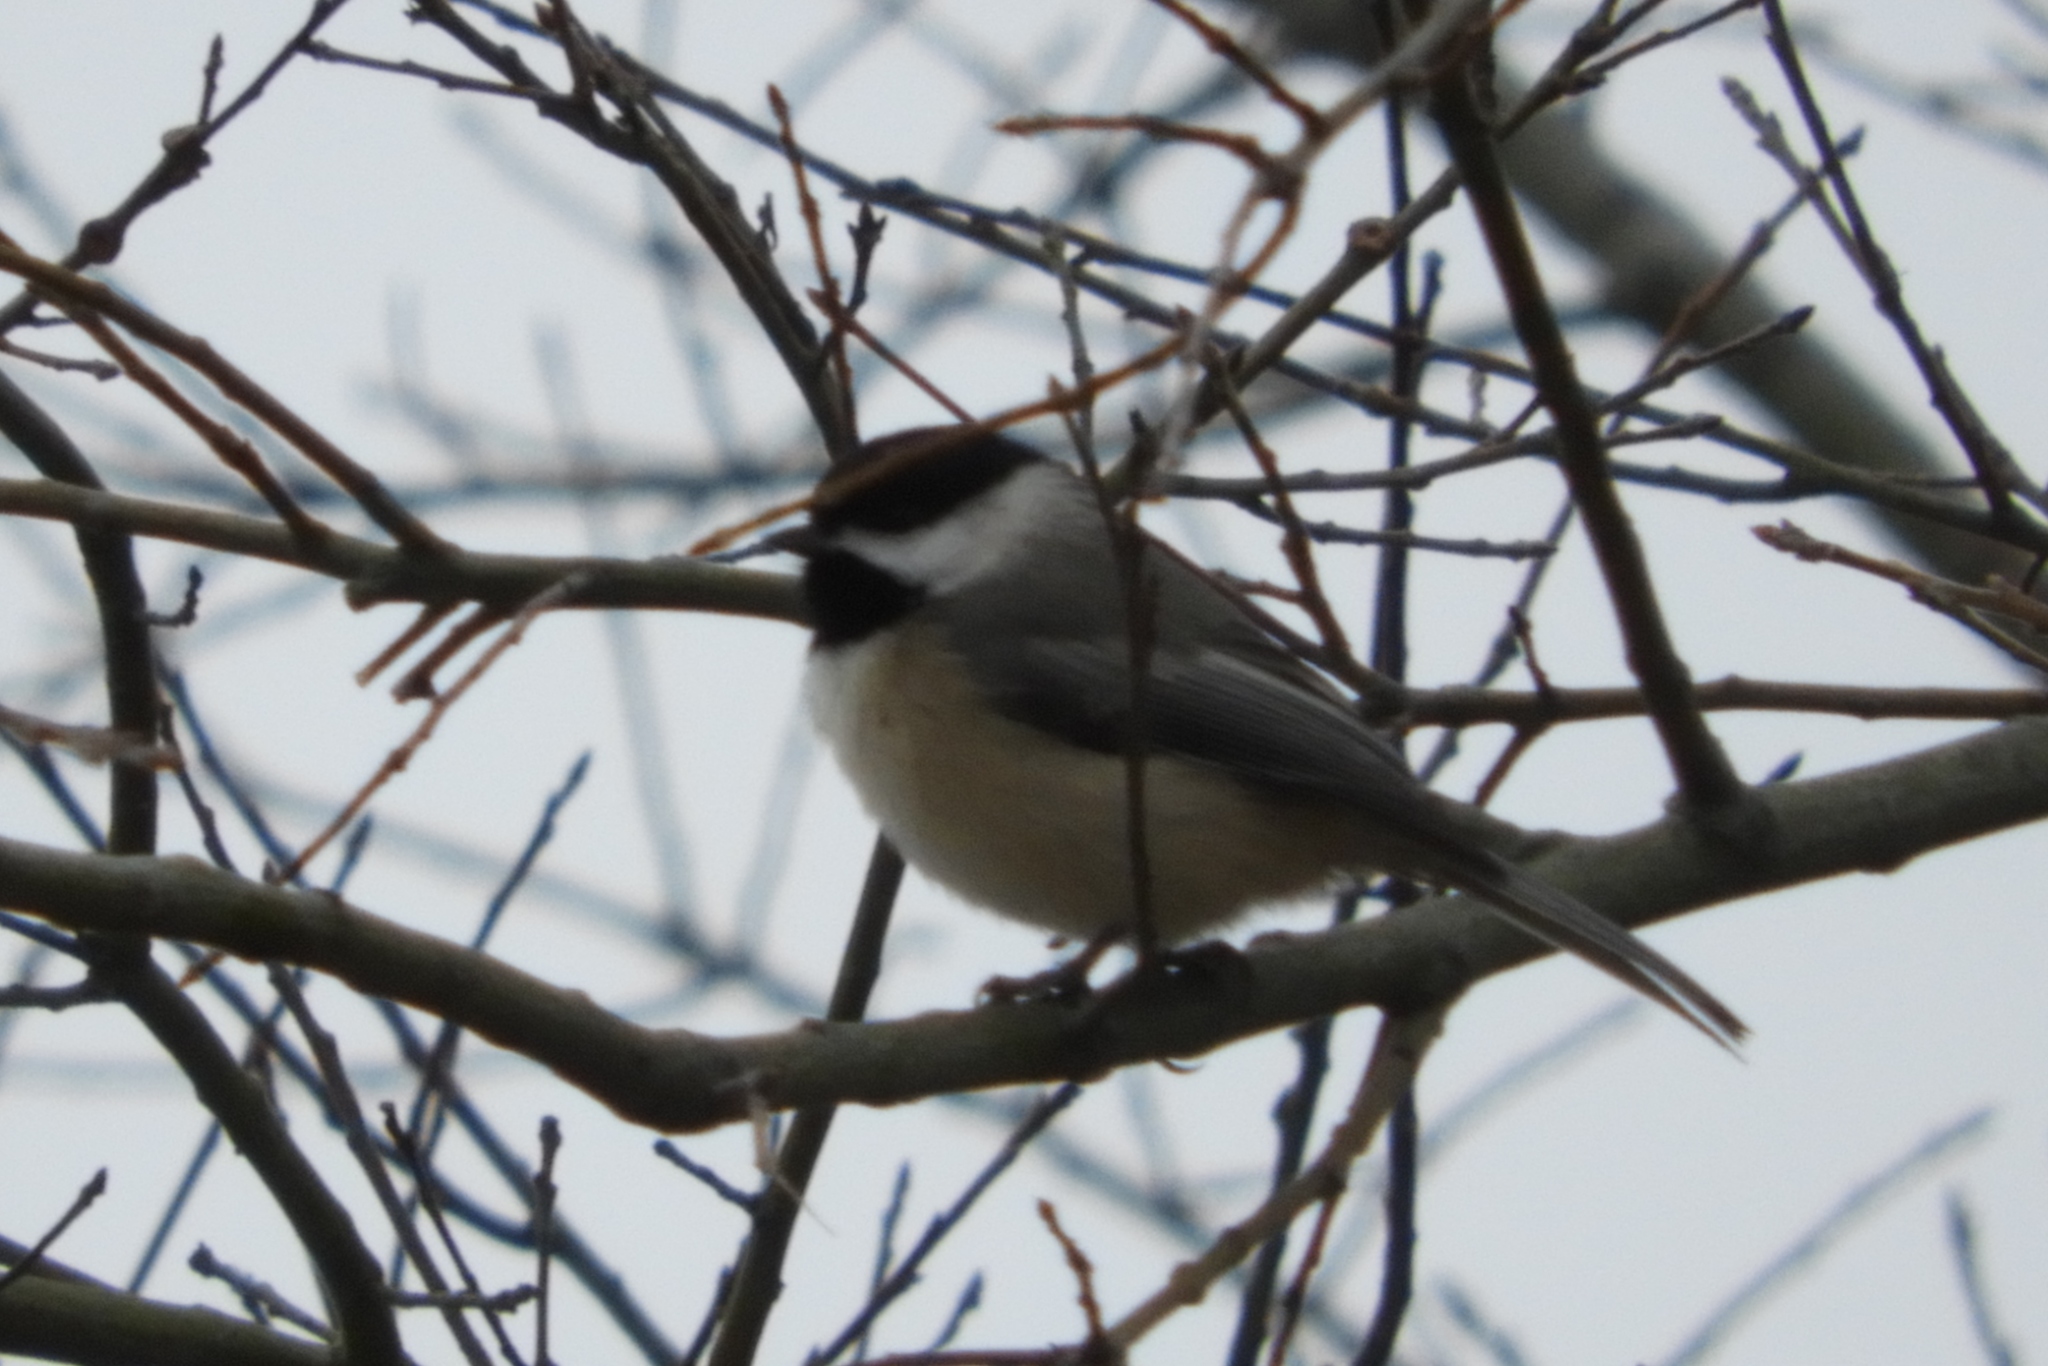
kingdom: Animalia
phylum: Chordata
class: Aves
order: Passeriformes
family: Paridae
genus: Poecile
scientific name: Poecile carolinensis
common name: Carolina chickadee
